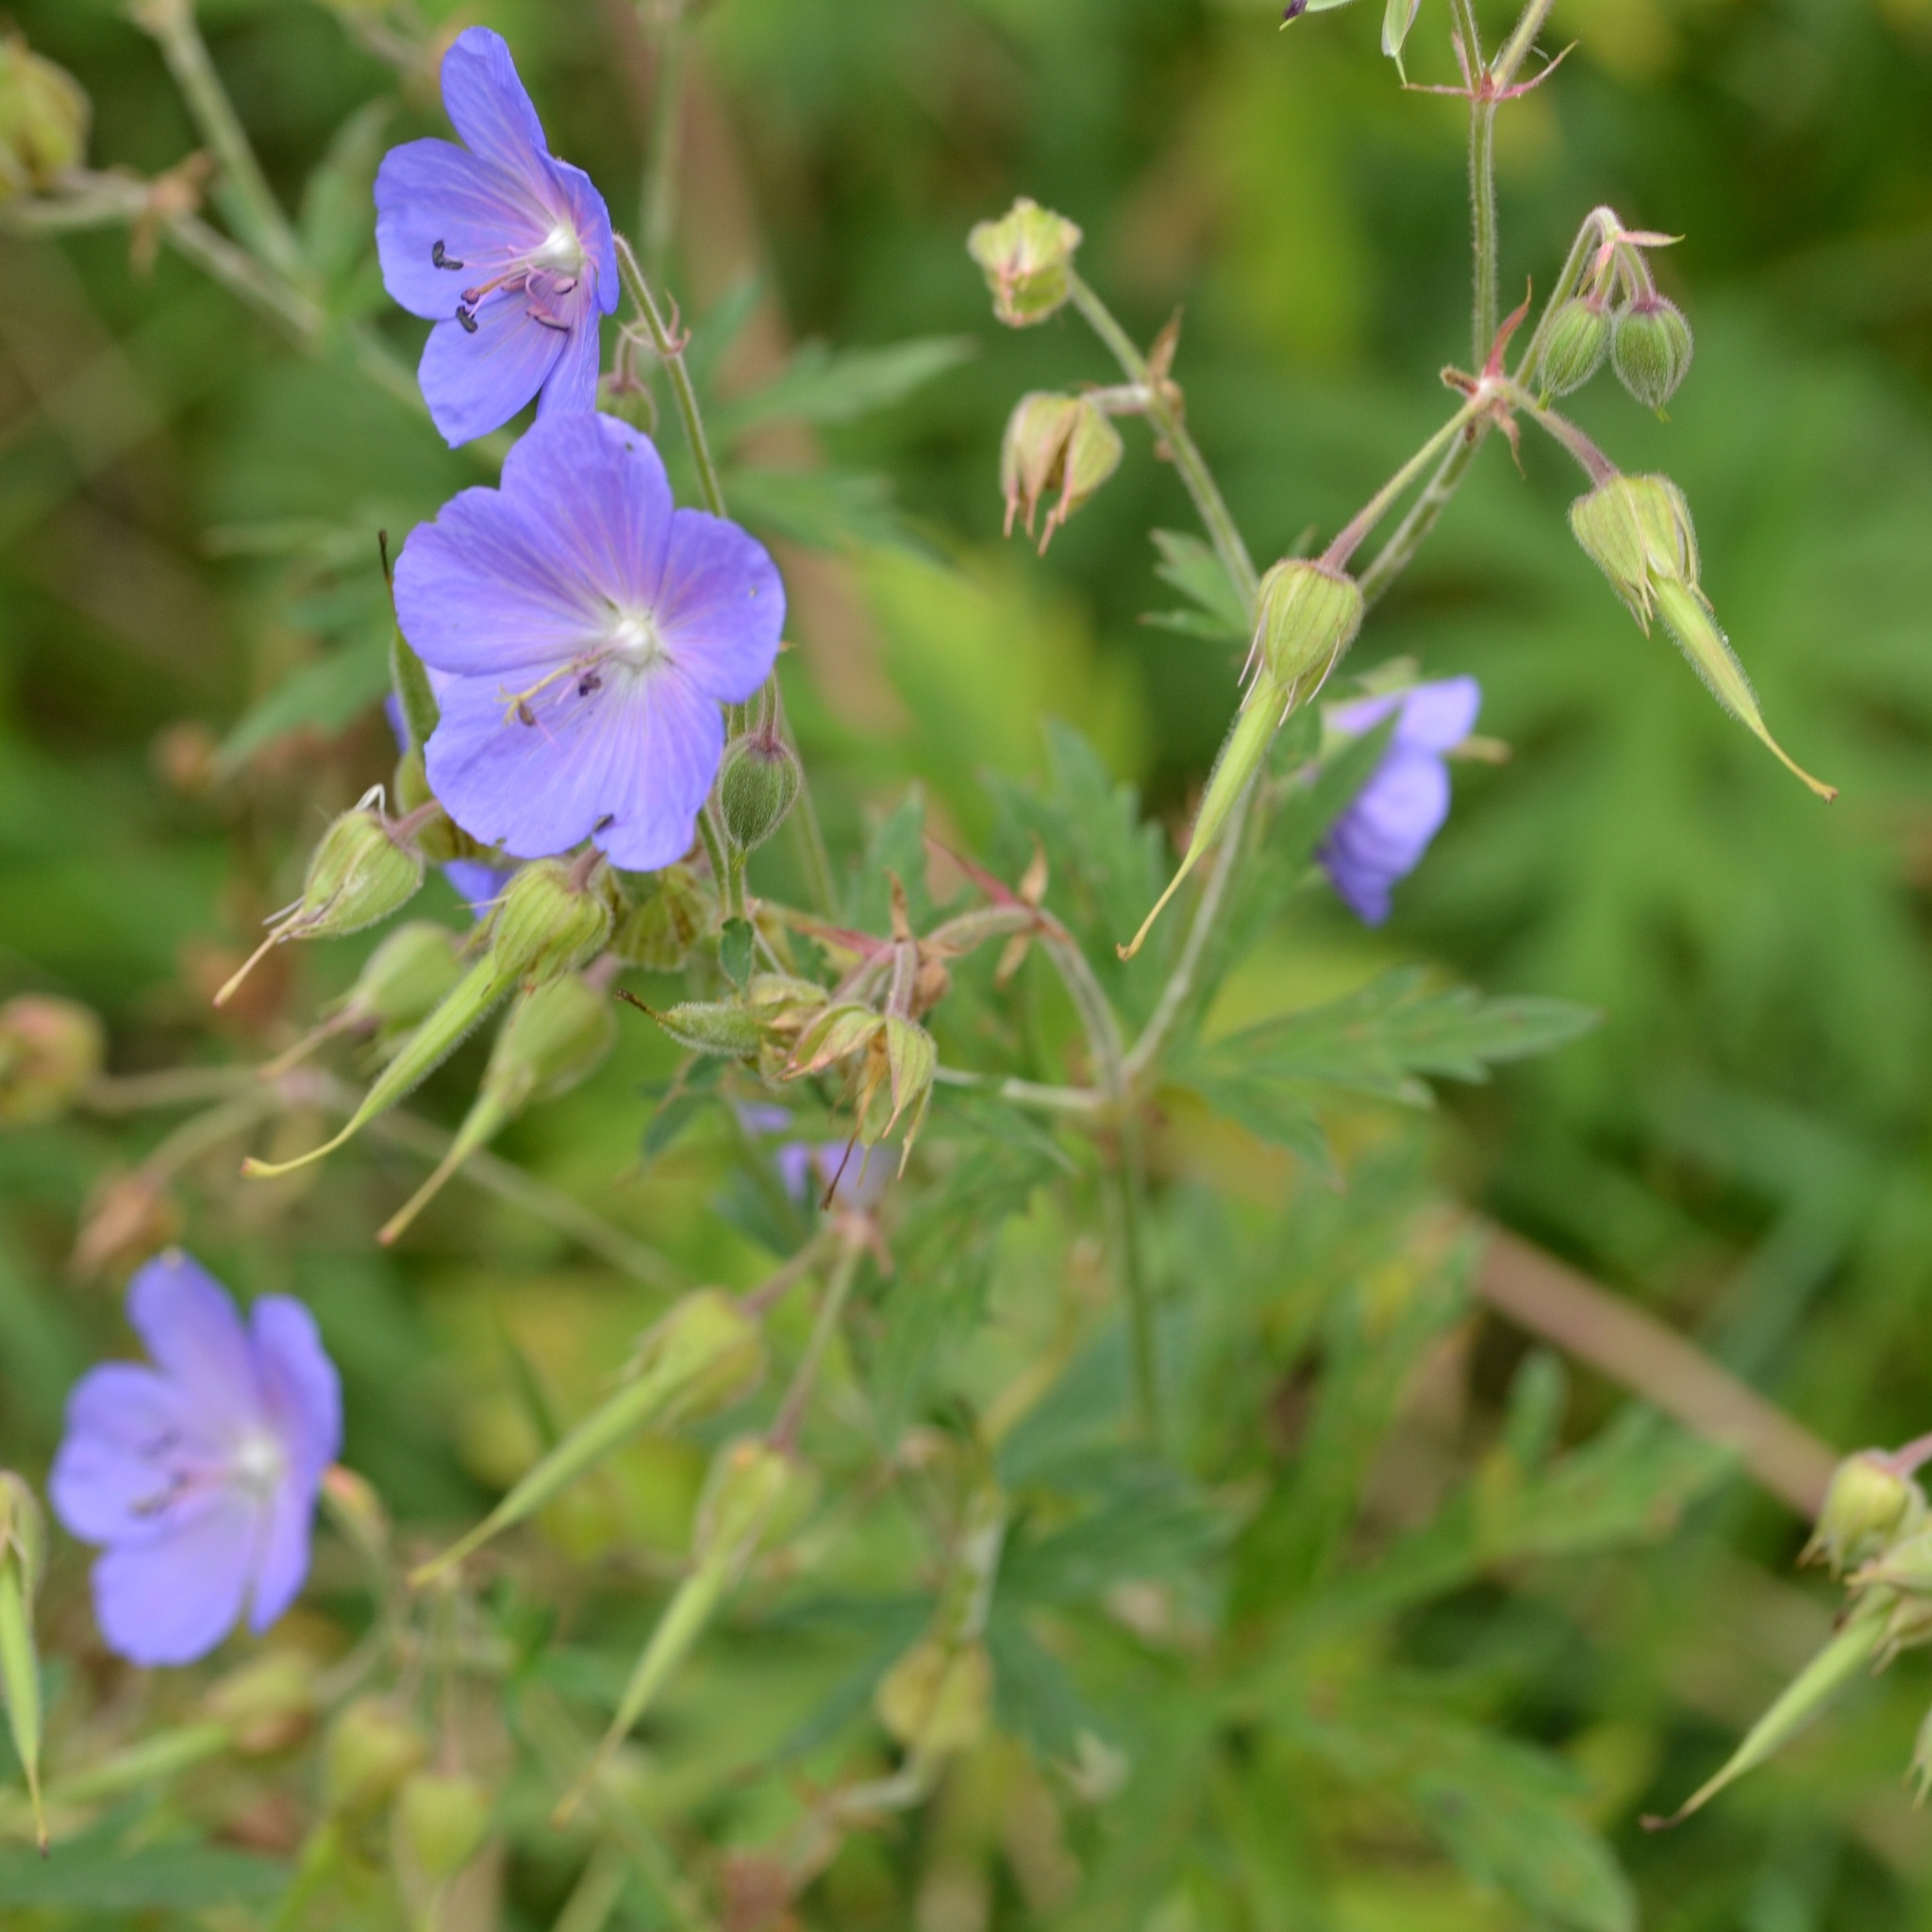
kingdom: Plantae
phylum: Tracheophyta
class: Magnoliopsida
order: Geraniales
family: Geraniaceae
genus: Geranium
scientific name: Geranium pratense
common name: Meadow crane's-bill
